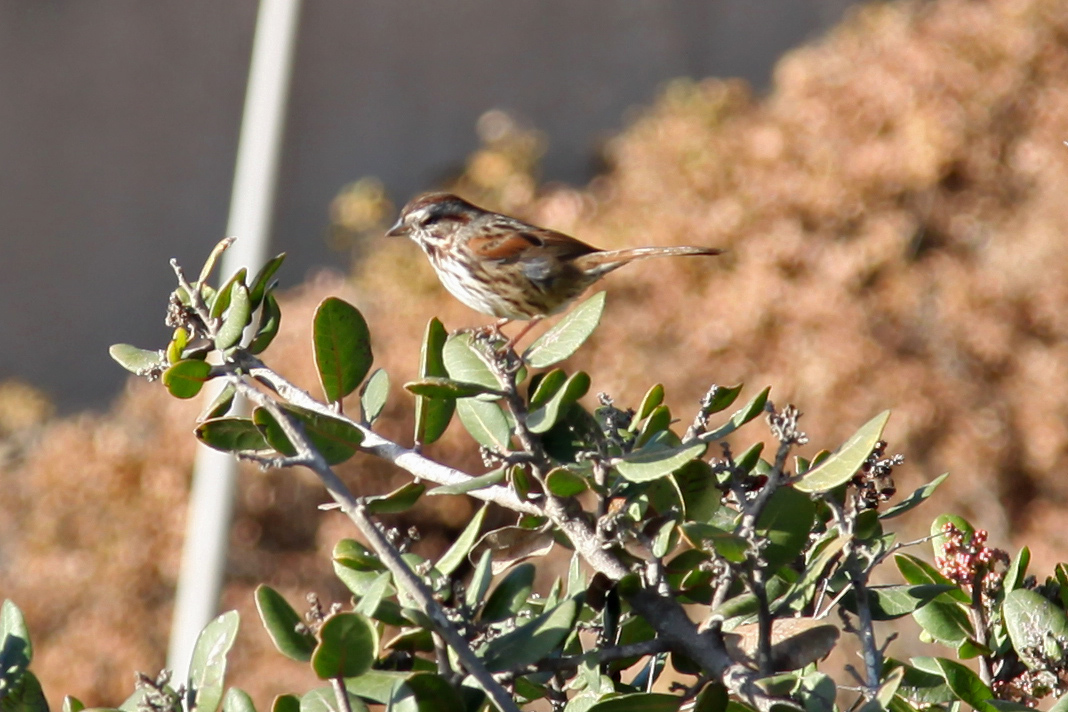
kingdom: Animalia
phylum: Chordata
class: Aves
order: Passeriformes
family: Passerellidae
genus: Melospiza
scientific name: Melospiza melodia
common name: Song sparrow
